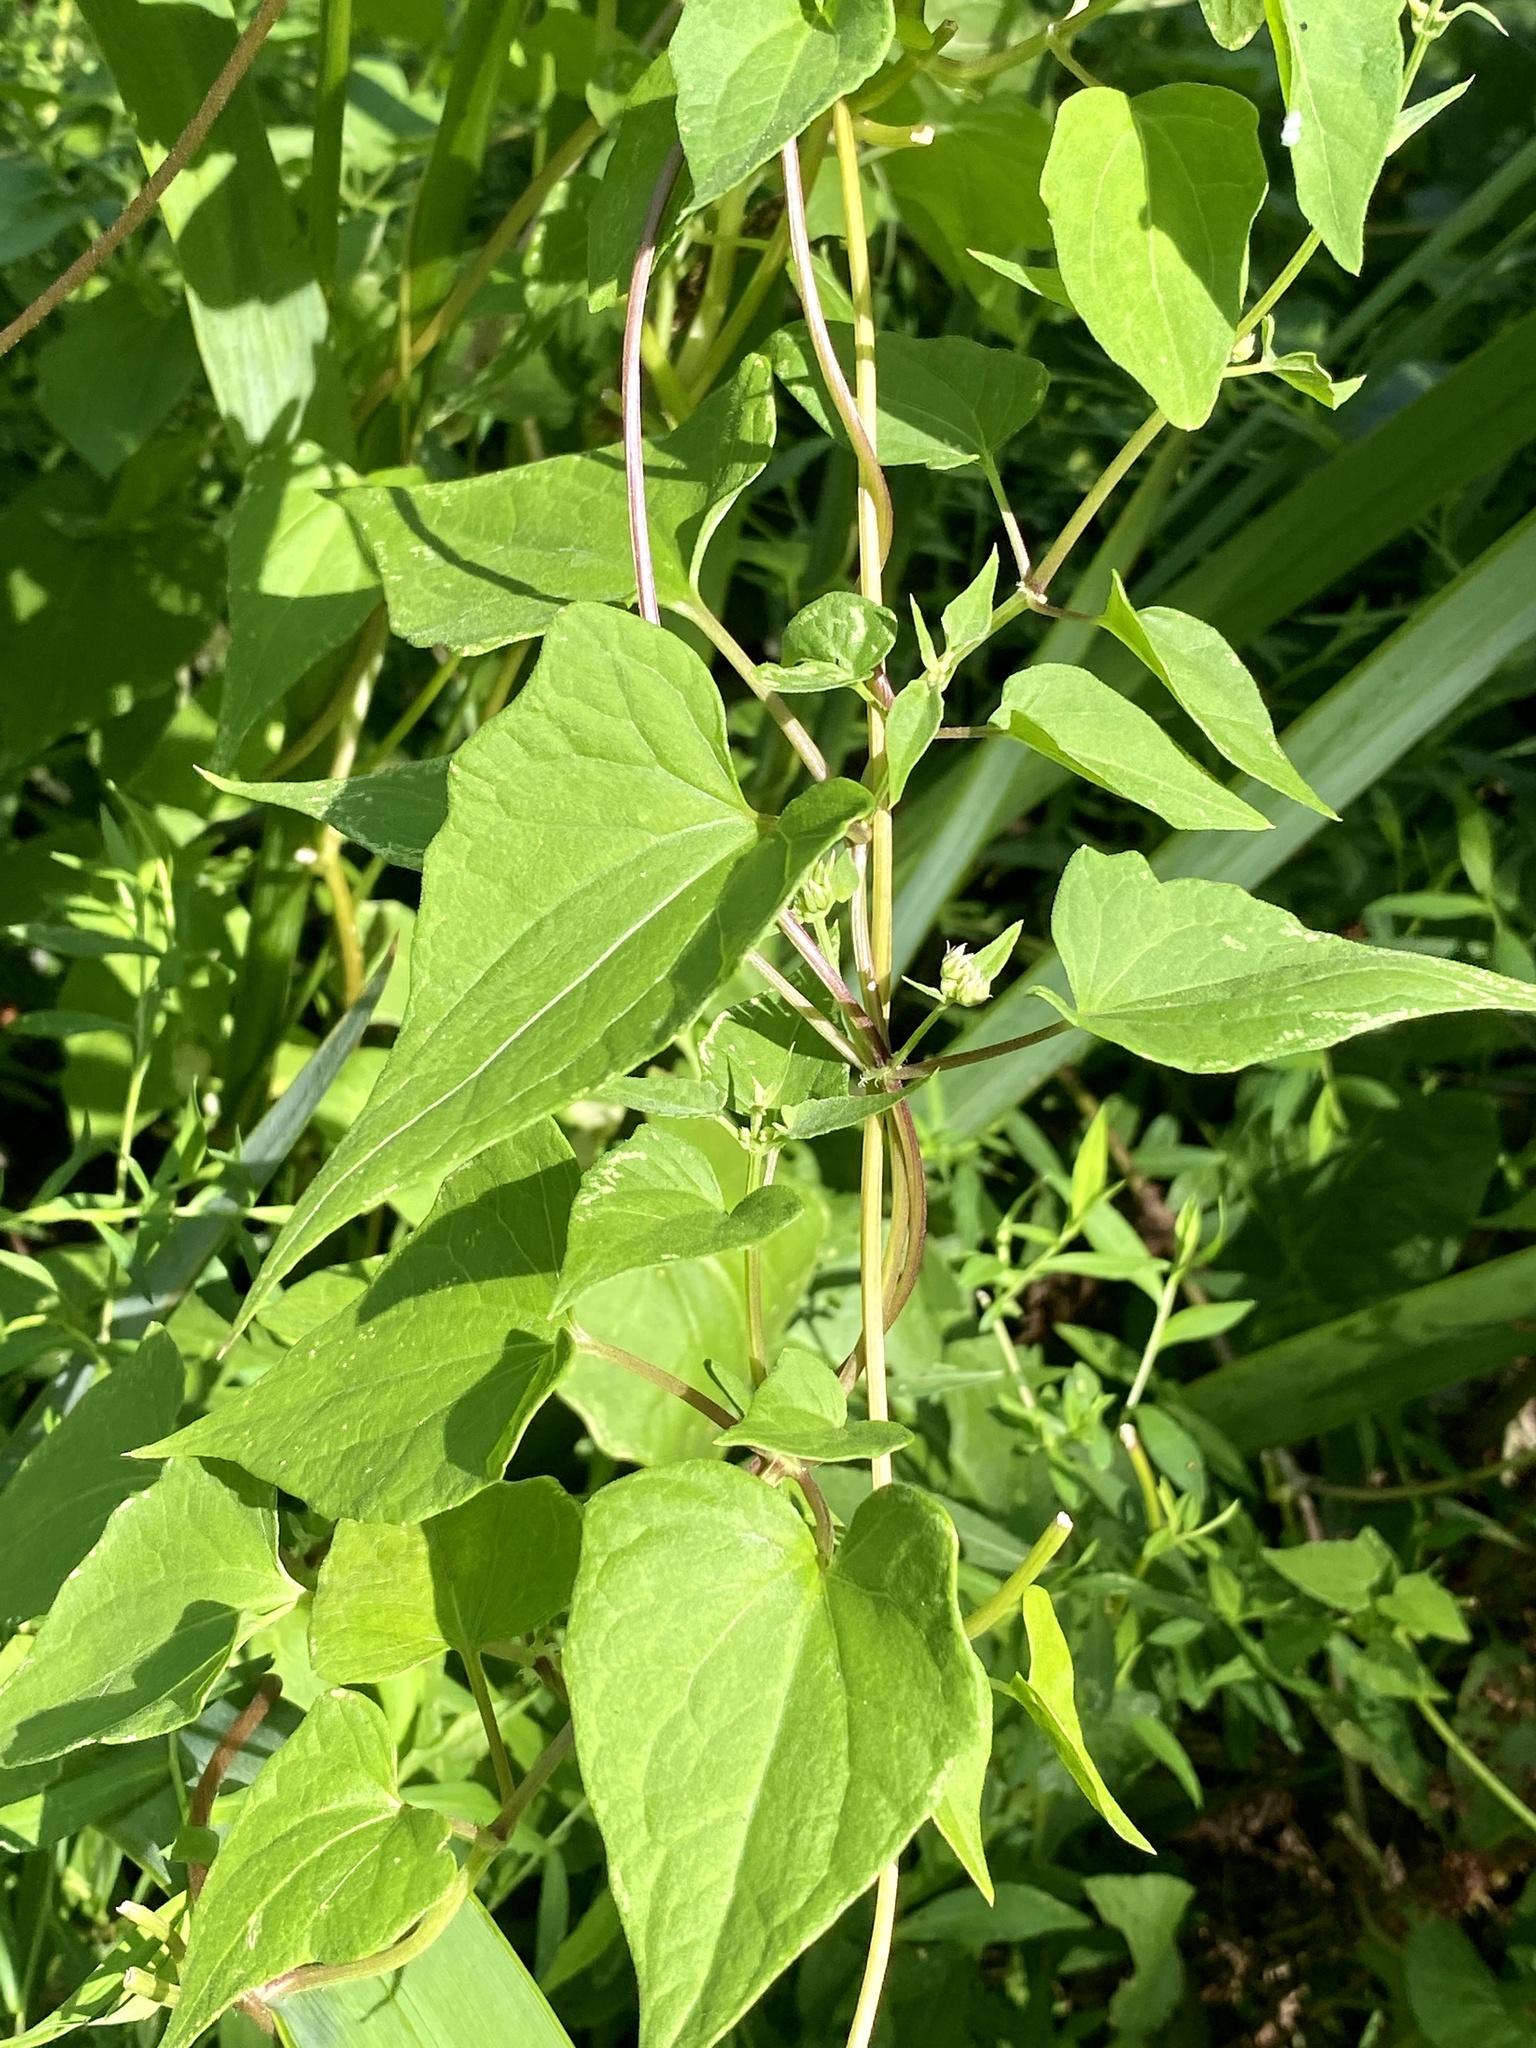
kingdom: Plantae
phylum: Tracheophyta
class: Magnoliopsida
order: Asterales
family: Asteraceae
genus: Mikania
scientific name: Mikania scandens
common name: Climbing hempvine
